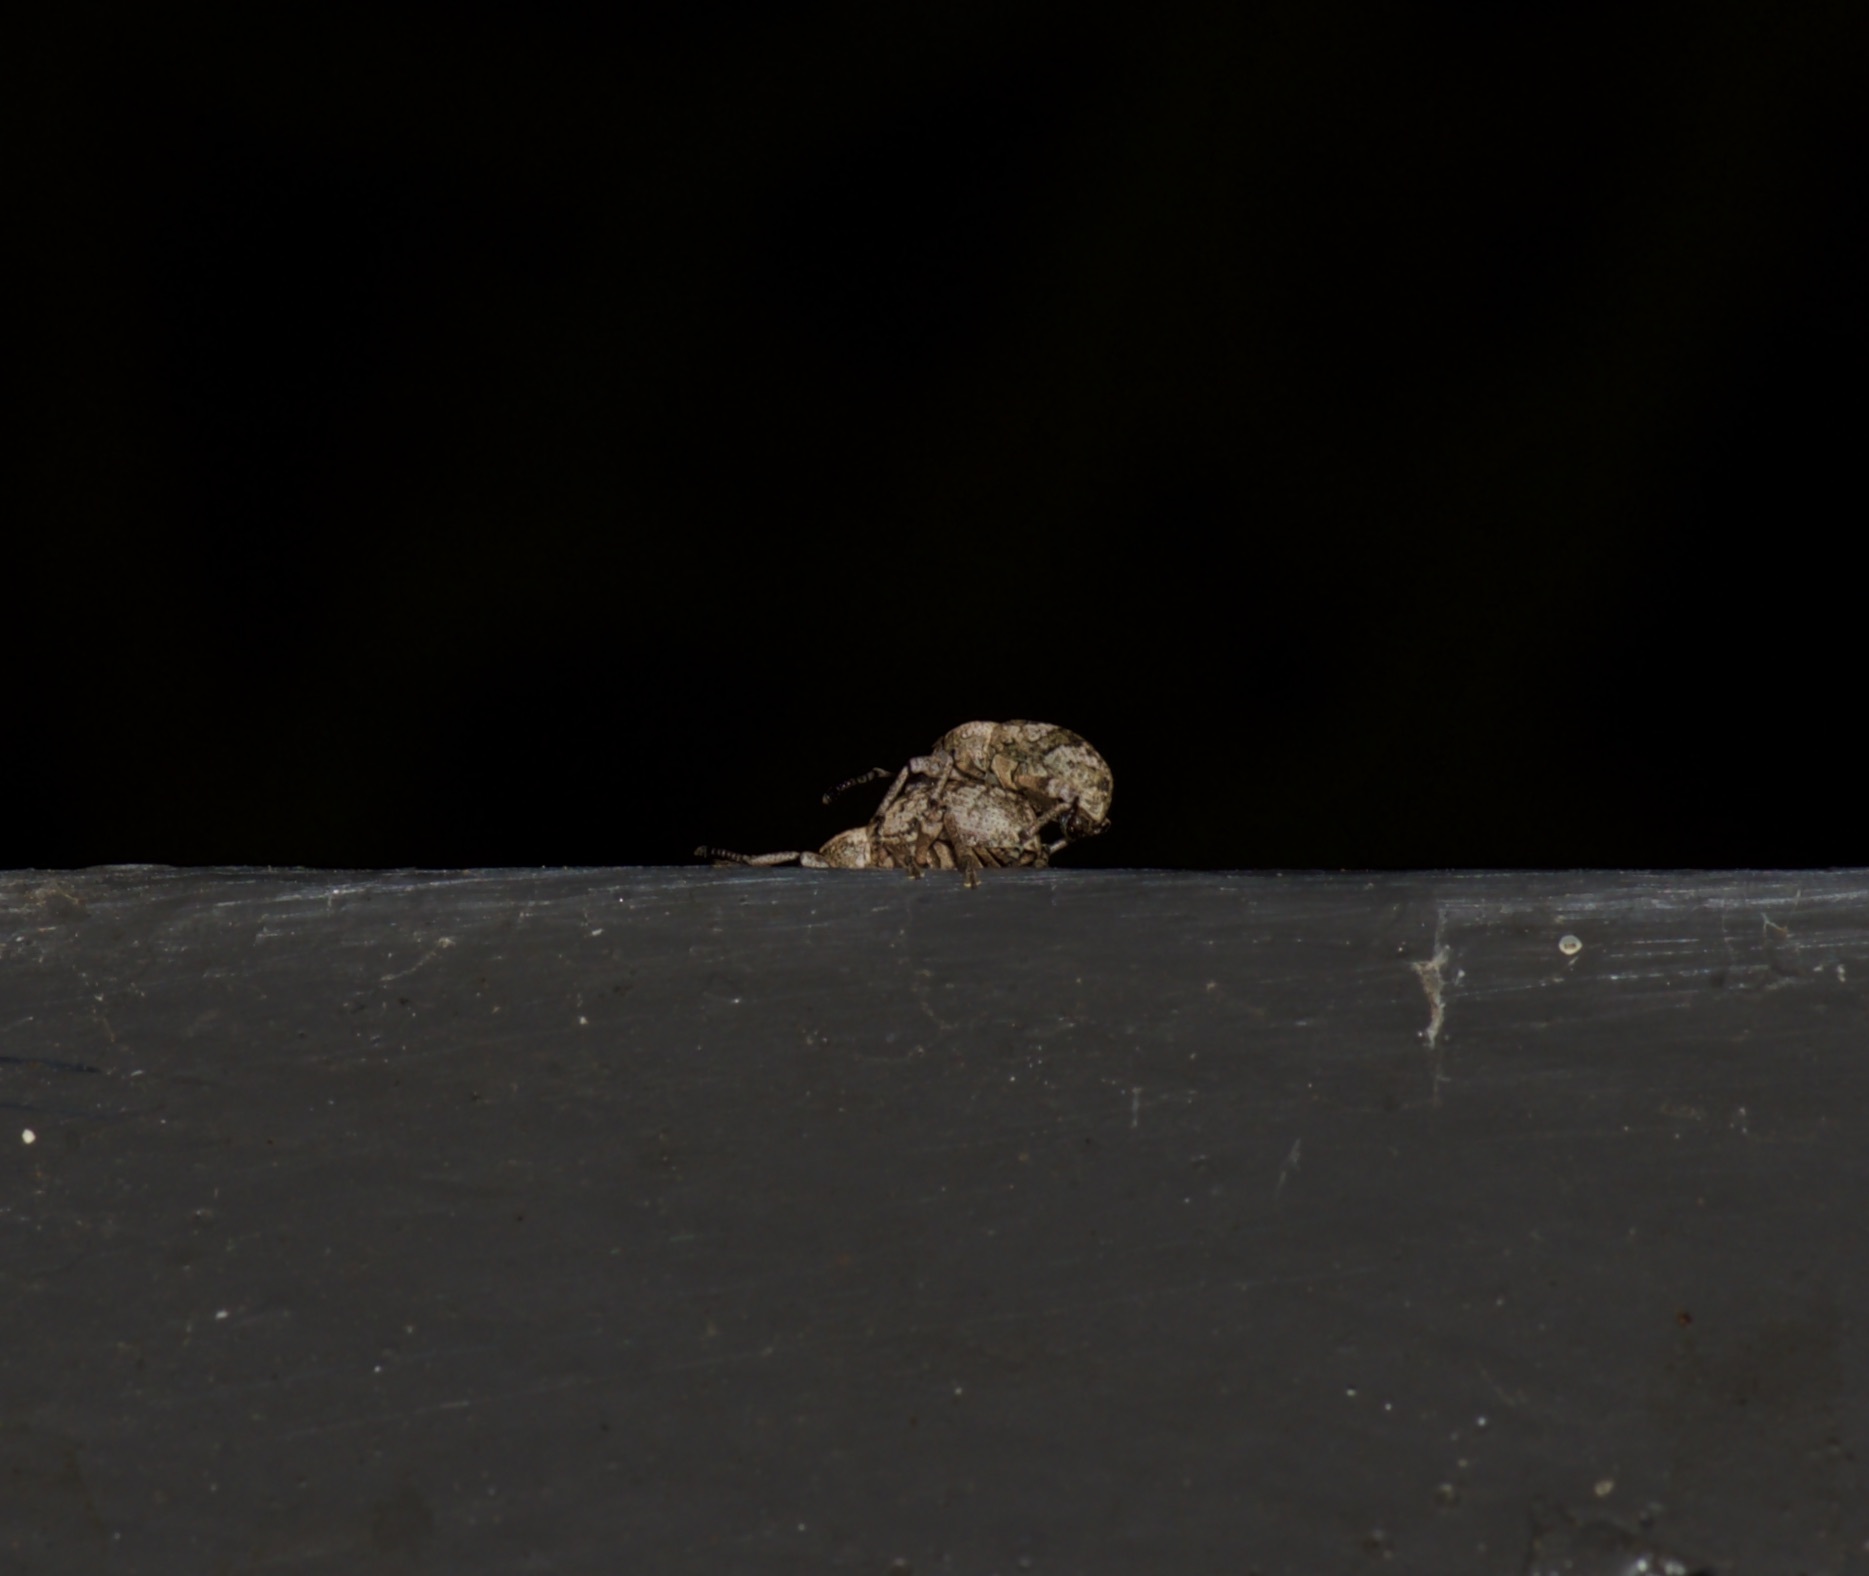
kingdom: Animalia
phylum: Arthropoda
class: Insecta
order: Coleoptera
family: Curculionidae
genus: Omileus
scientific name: Omileus epicaeroides
